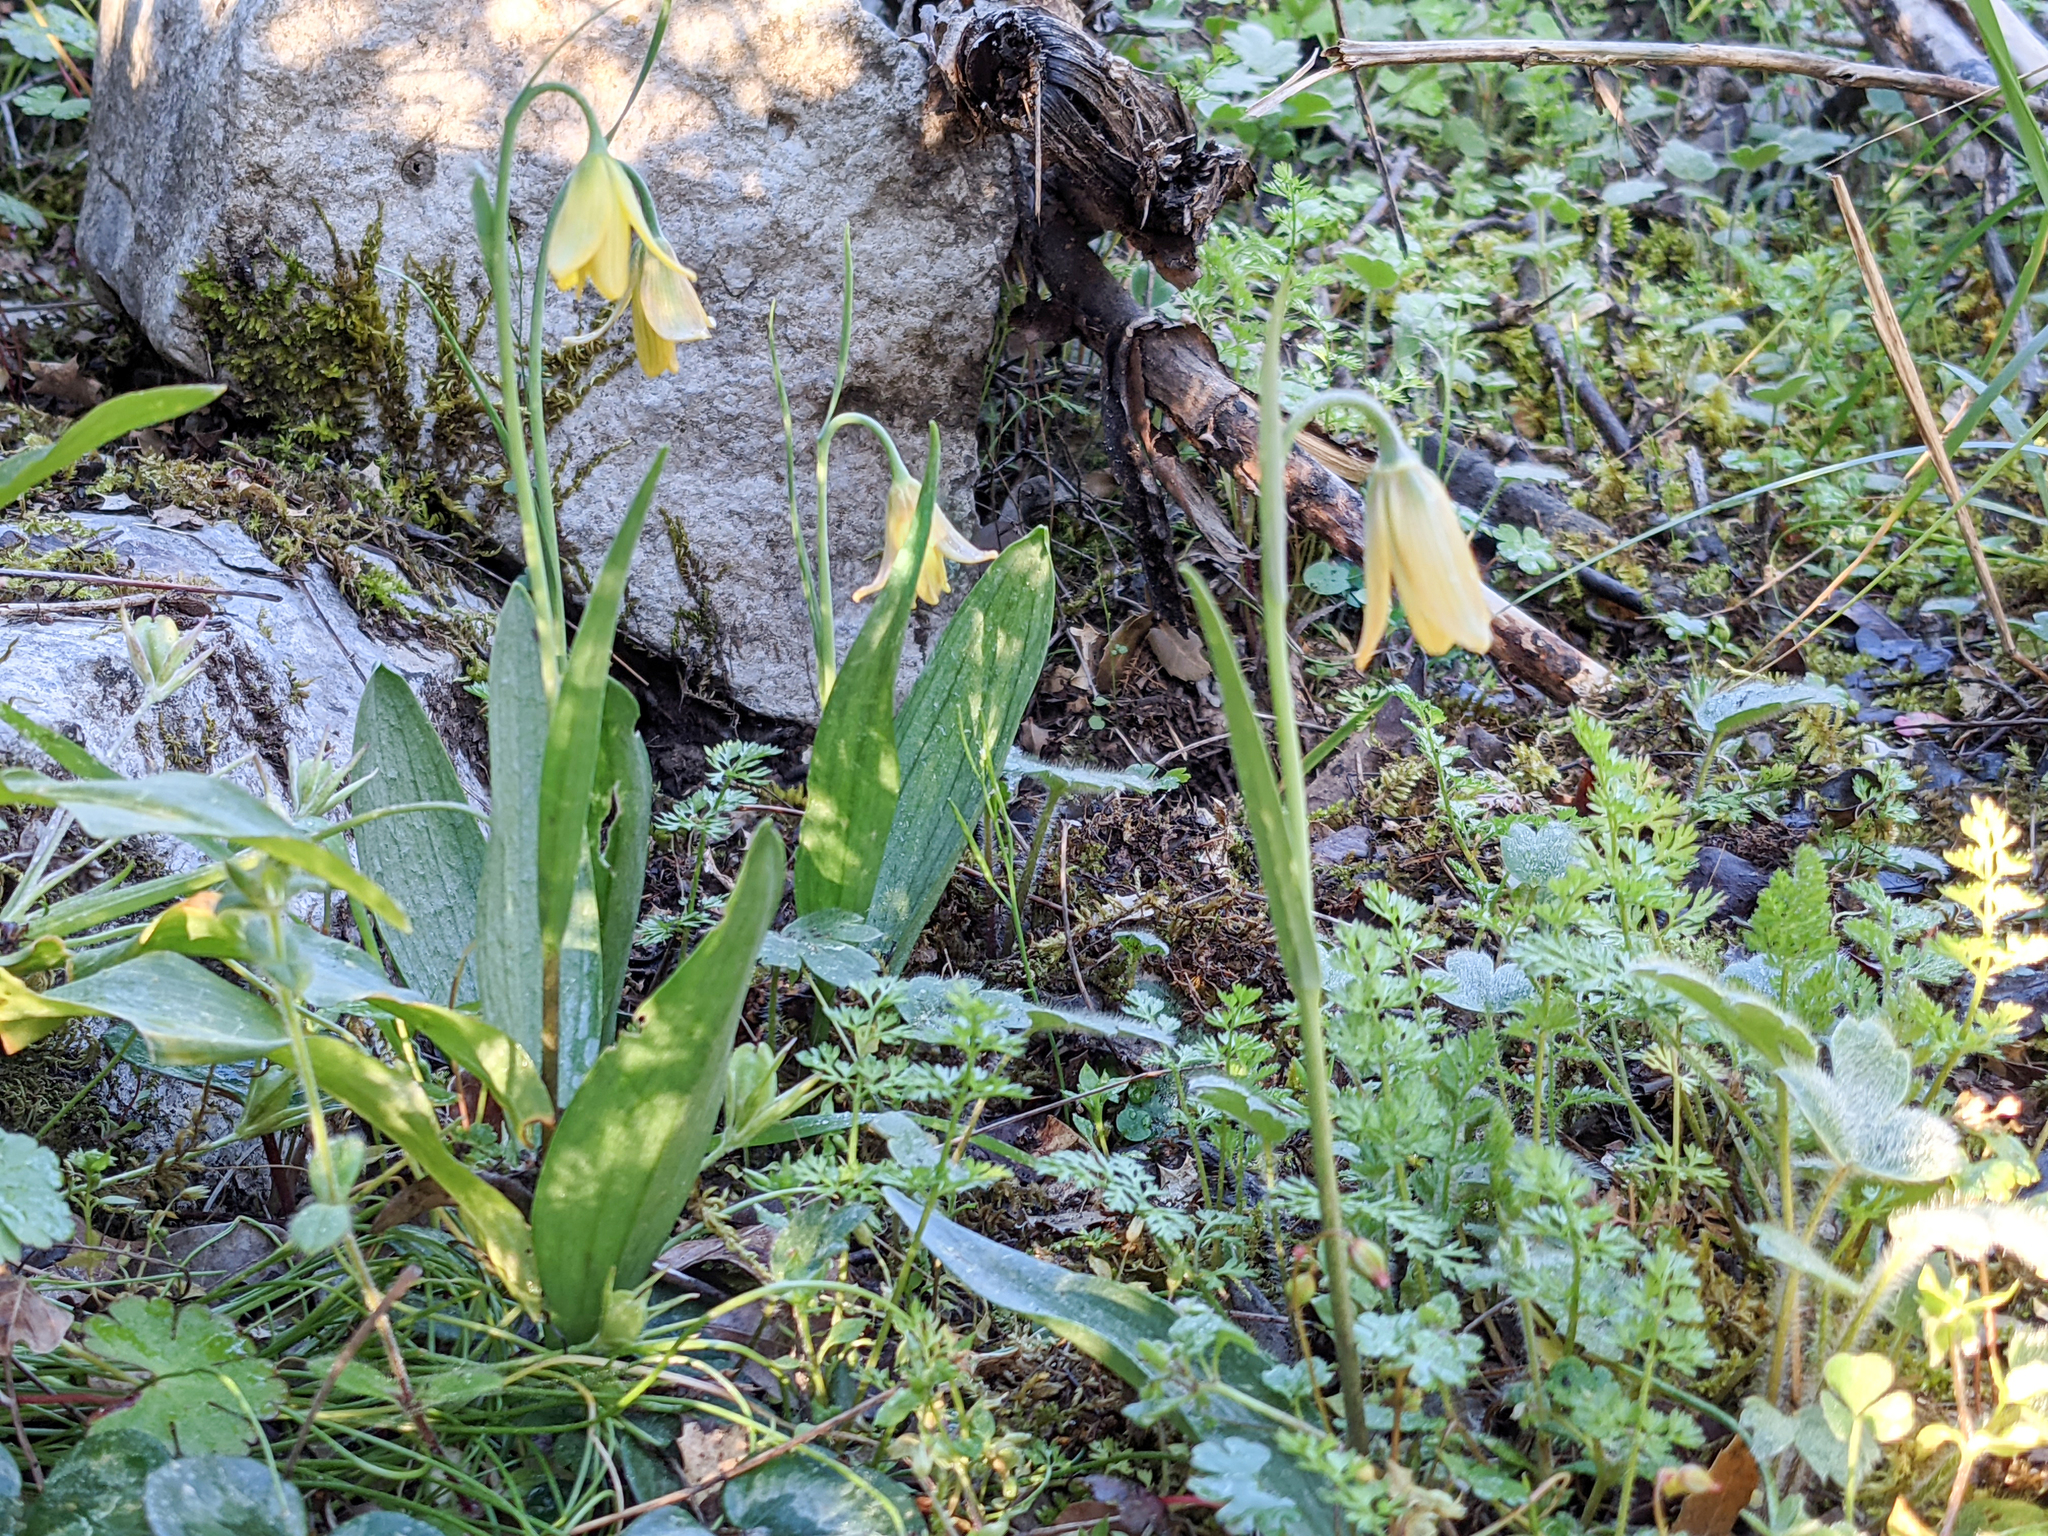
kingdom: Plantae
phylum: Tracheophyta
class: Liliopsida
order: Liliales
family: Liliaceae
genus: Fritillaria
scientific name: Fritillaria enginiana
